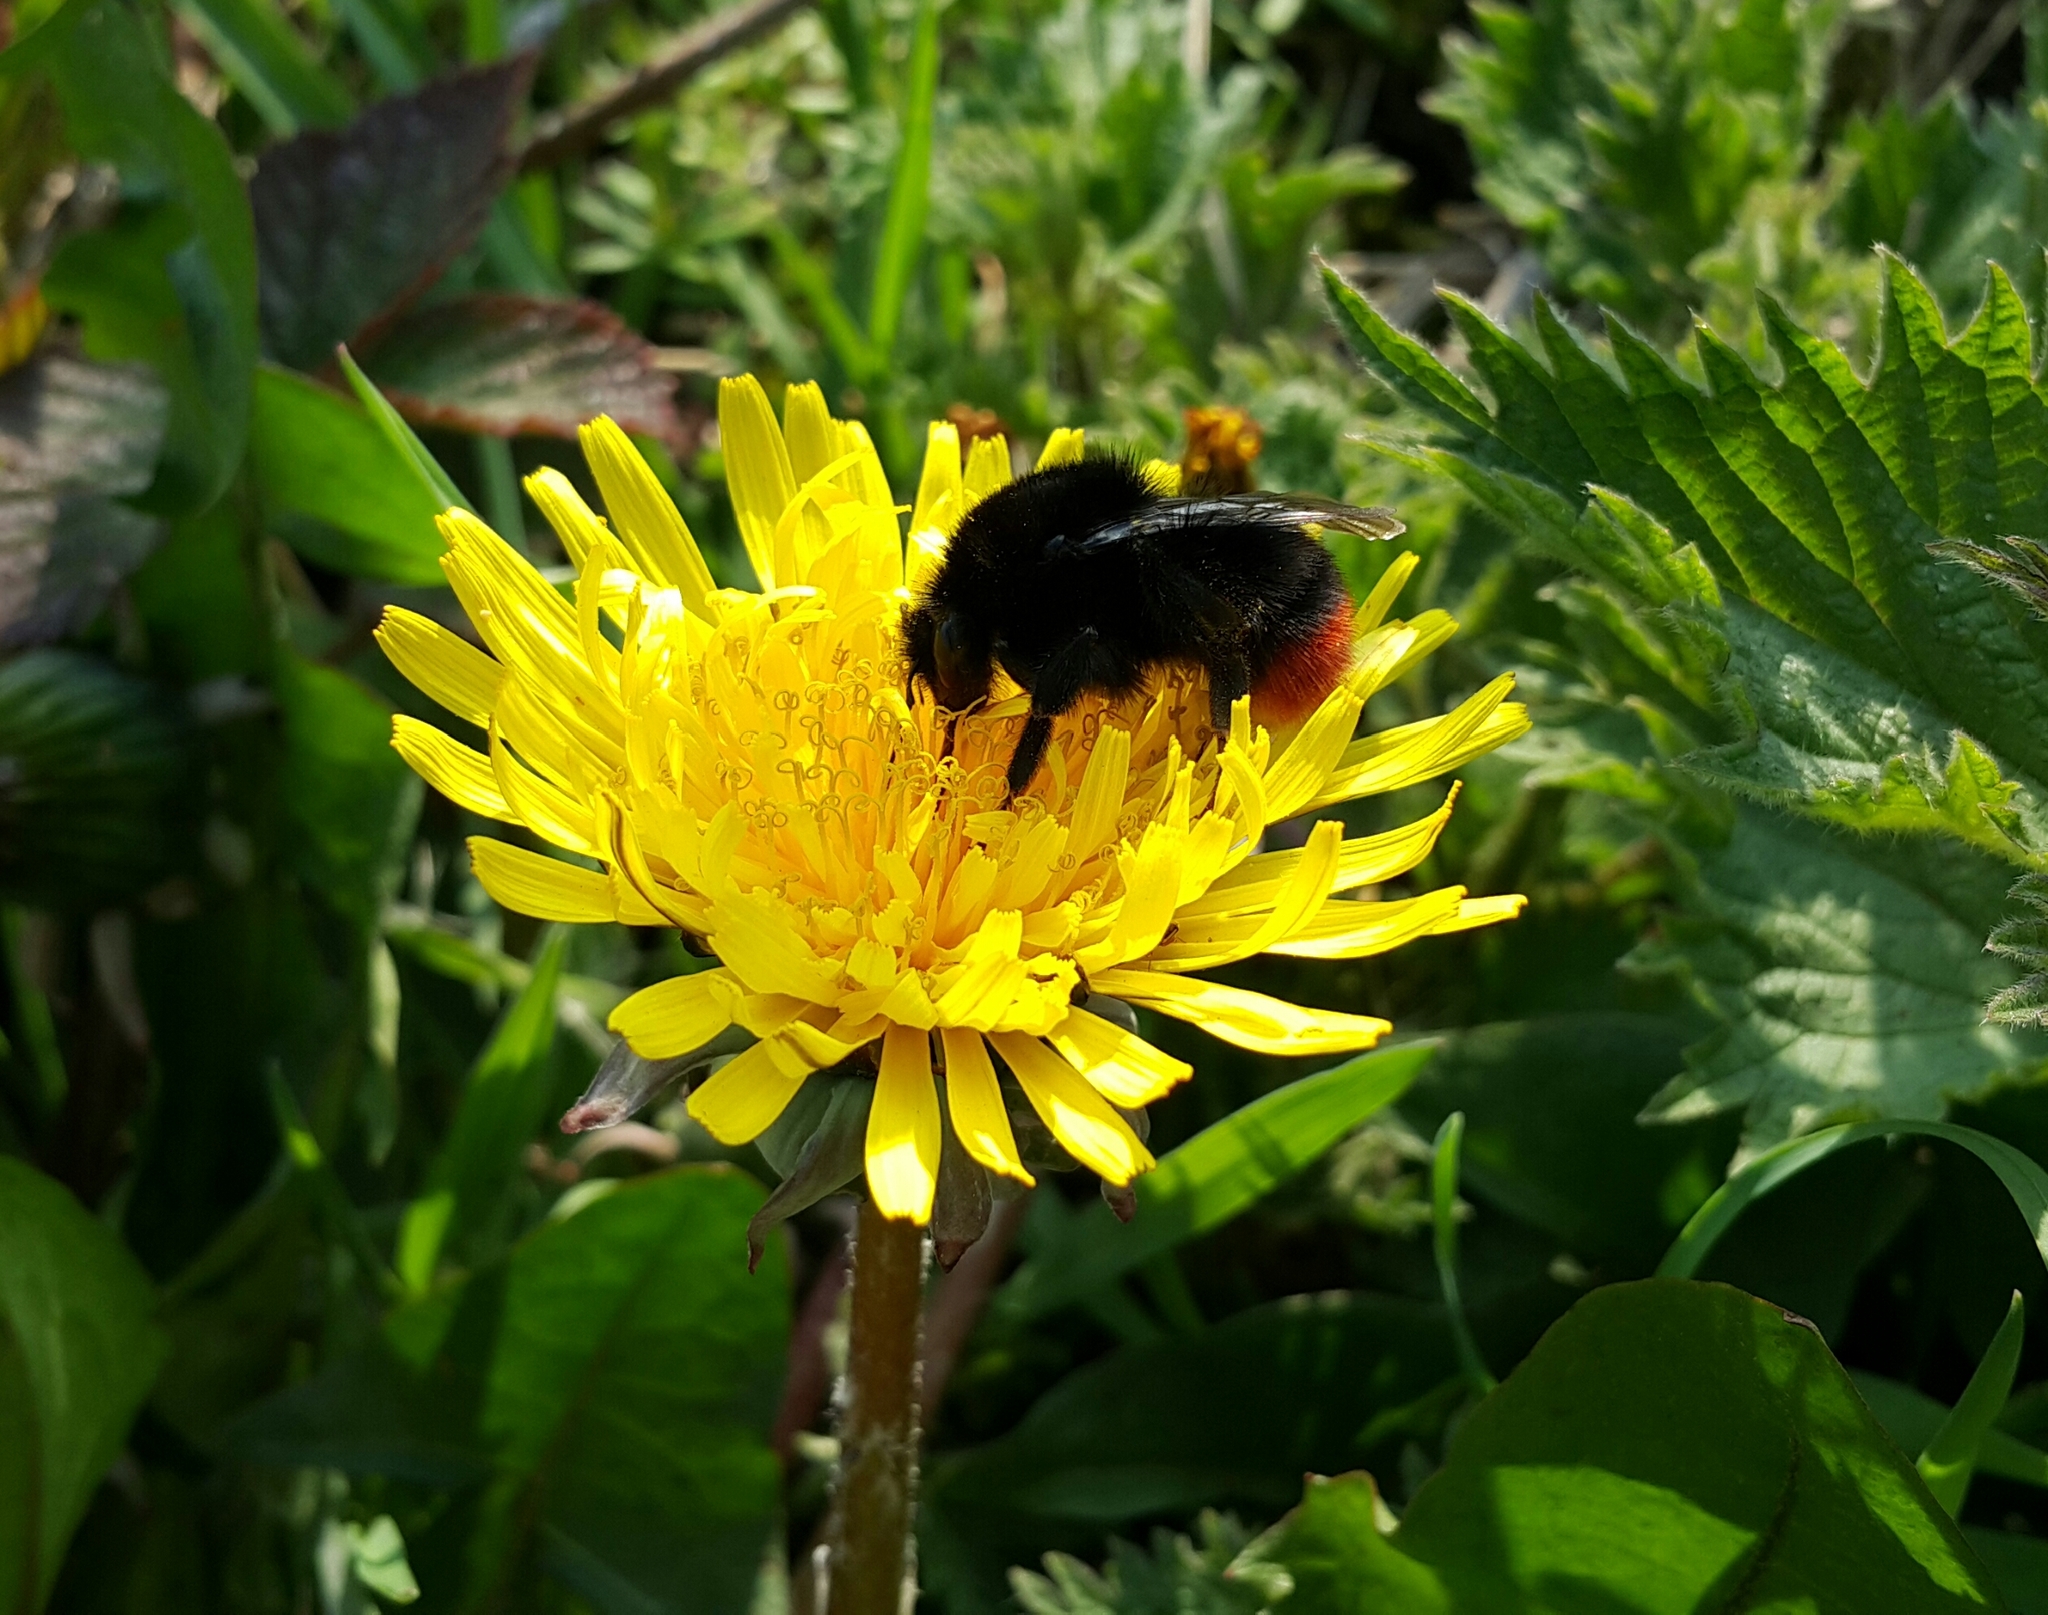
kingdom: Animalia
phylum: Arthropoda
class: Insecta
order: Hymenoptera
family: Apidae
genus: Bombus
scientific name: Bombus lapidarius
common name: Large red-tailed humble-bee
